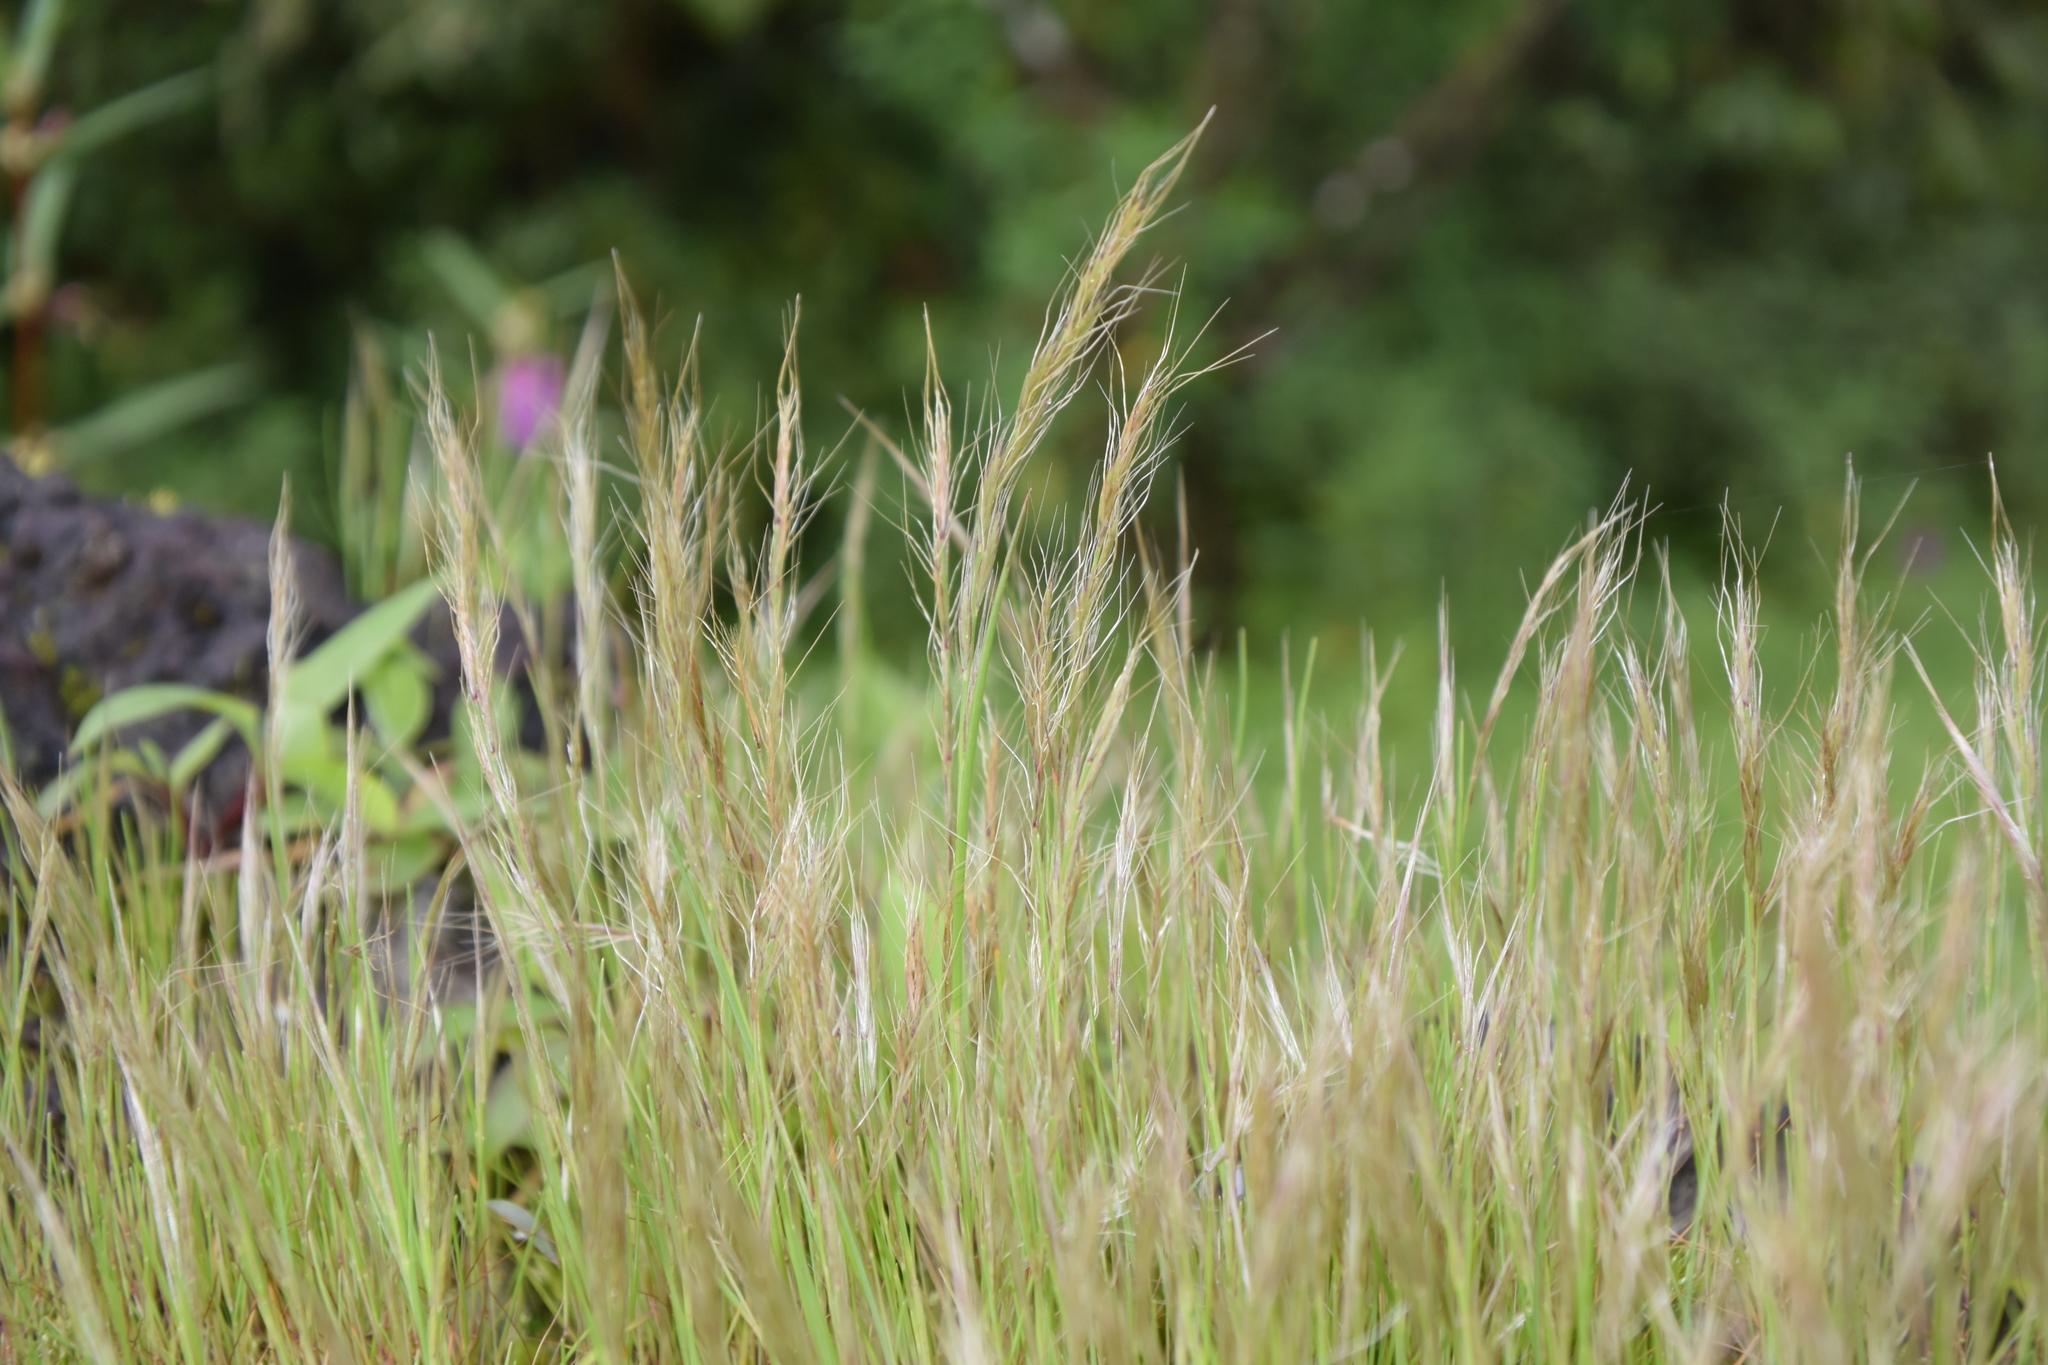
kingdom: Plantae
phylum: Tracheophyta
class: Liliopsida
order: Poales
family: Poaceae
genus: Indopoa
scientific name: Indopoa paupercula
